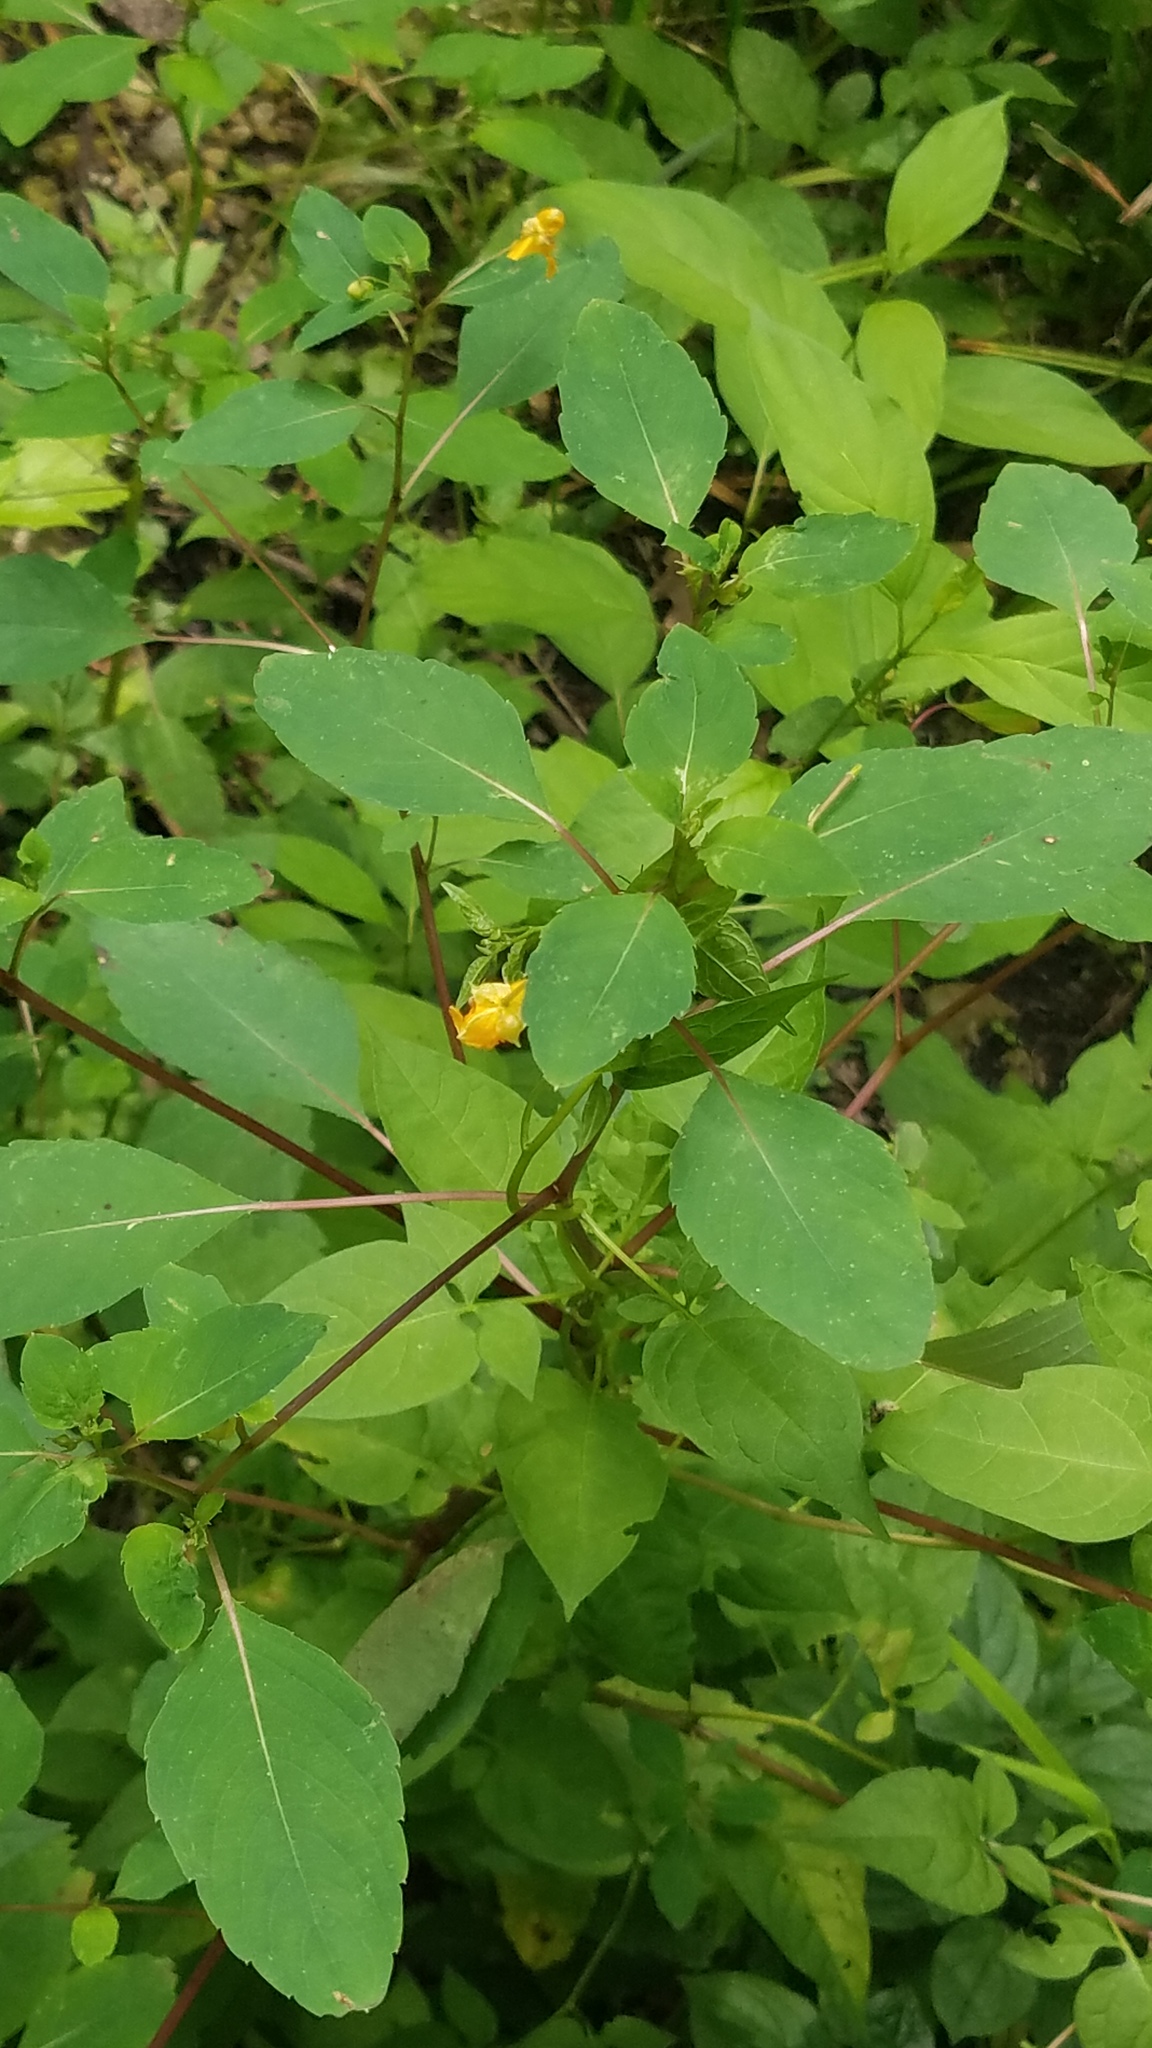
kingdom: Plantae
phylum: Tracheophyta
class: Magnoliopsida
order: Ericales
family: Balsaminaceae
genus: Impatiens
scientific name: Impatiens capensis
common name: Orange balsam
